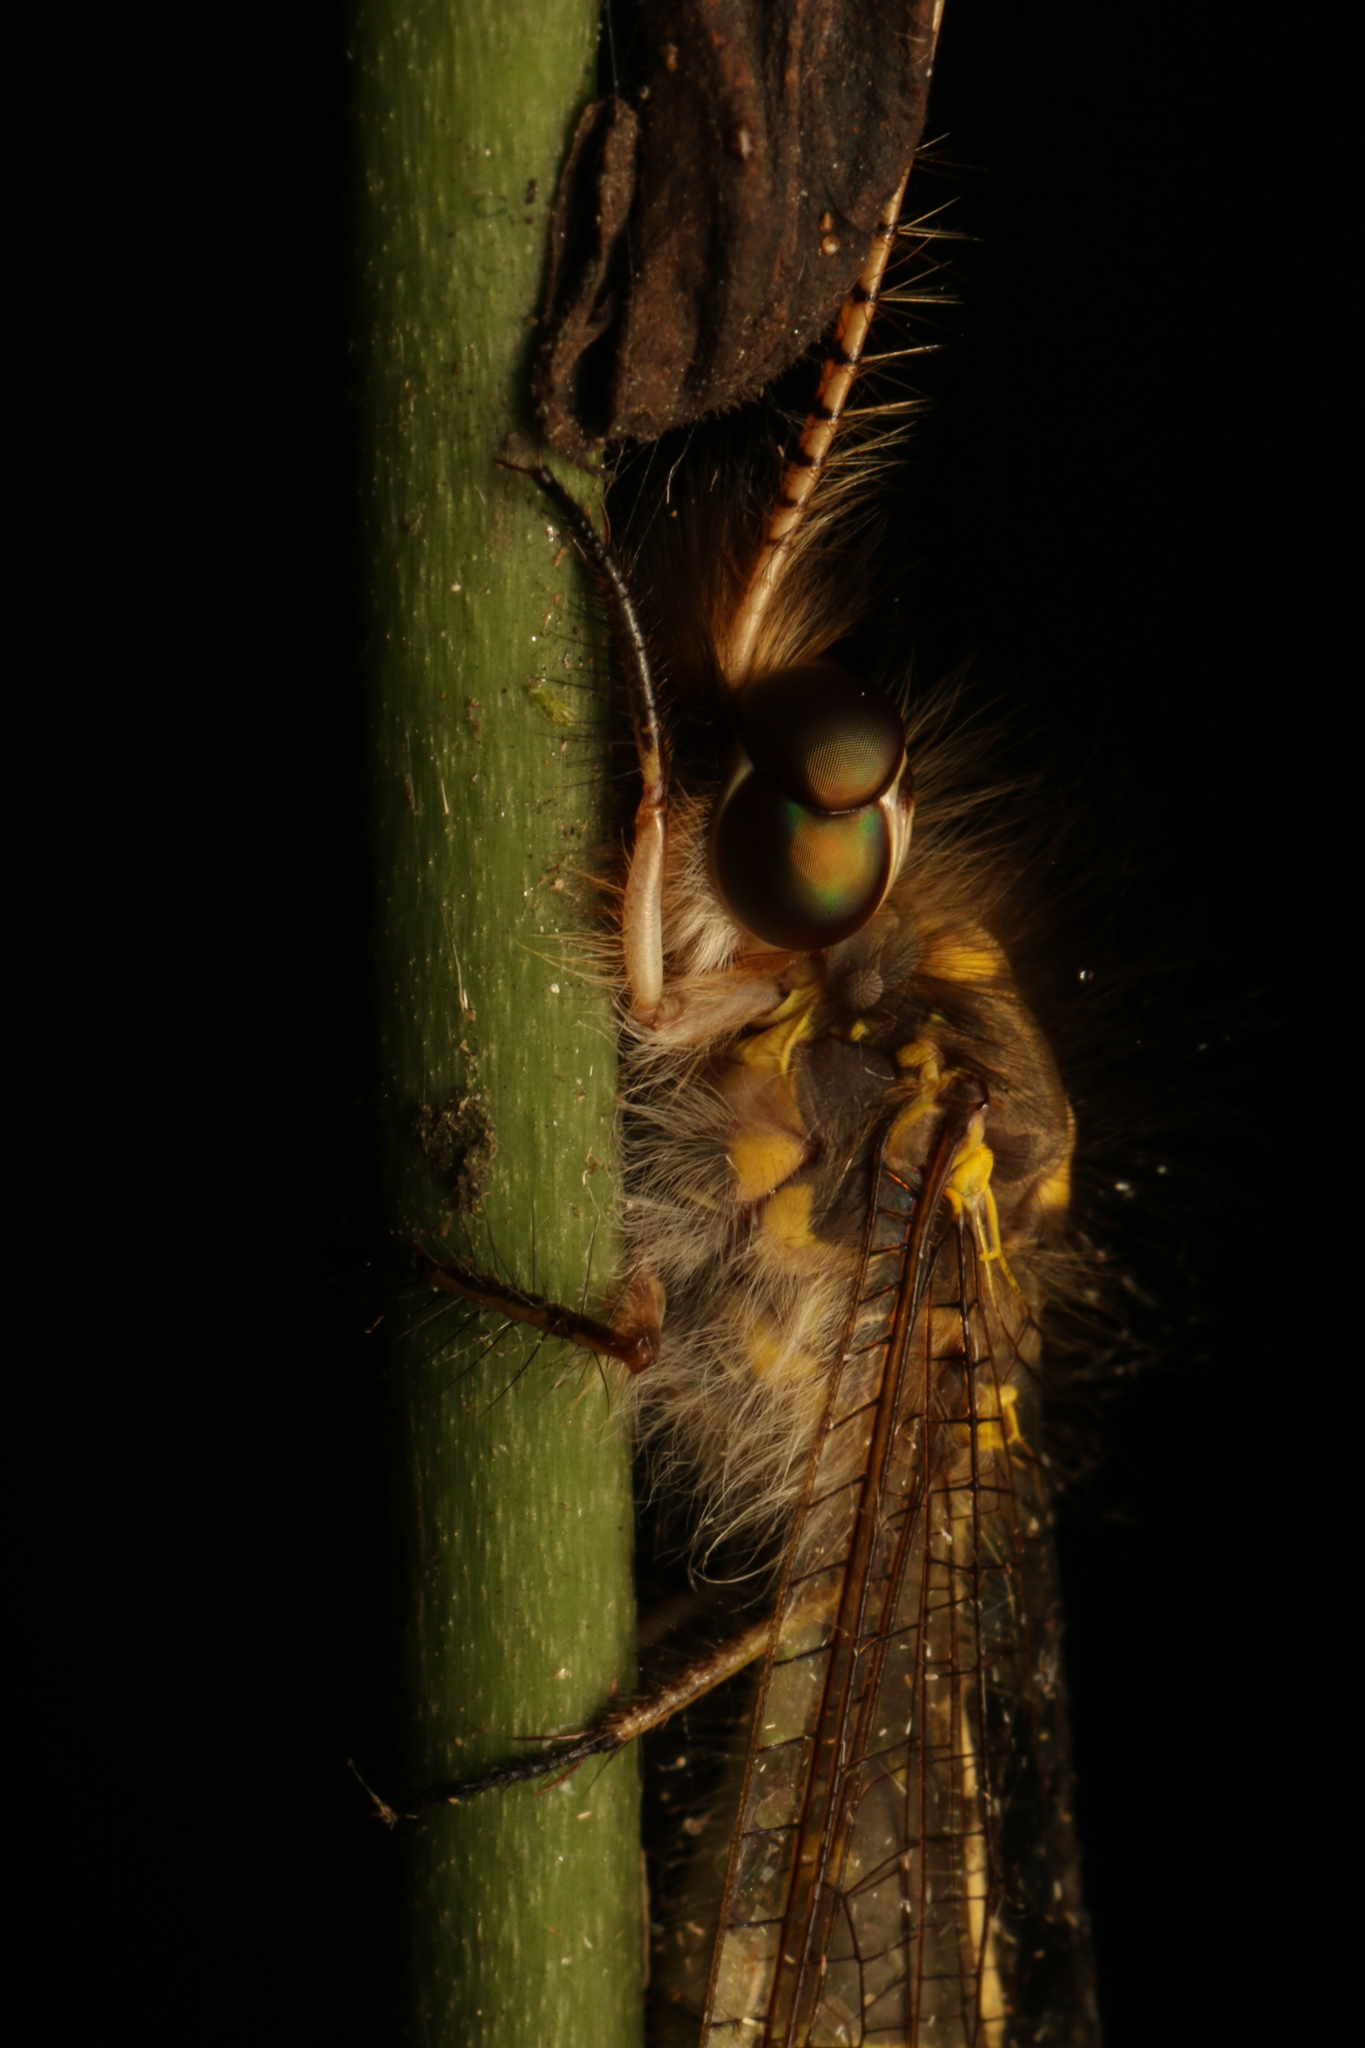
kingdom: Animalia
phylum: Arthropoda
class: Insecta
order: Neuroptera
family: Ascalaphidae
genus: Ameropterus
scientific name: Ameropterus versicolor
